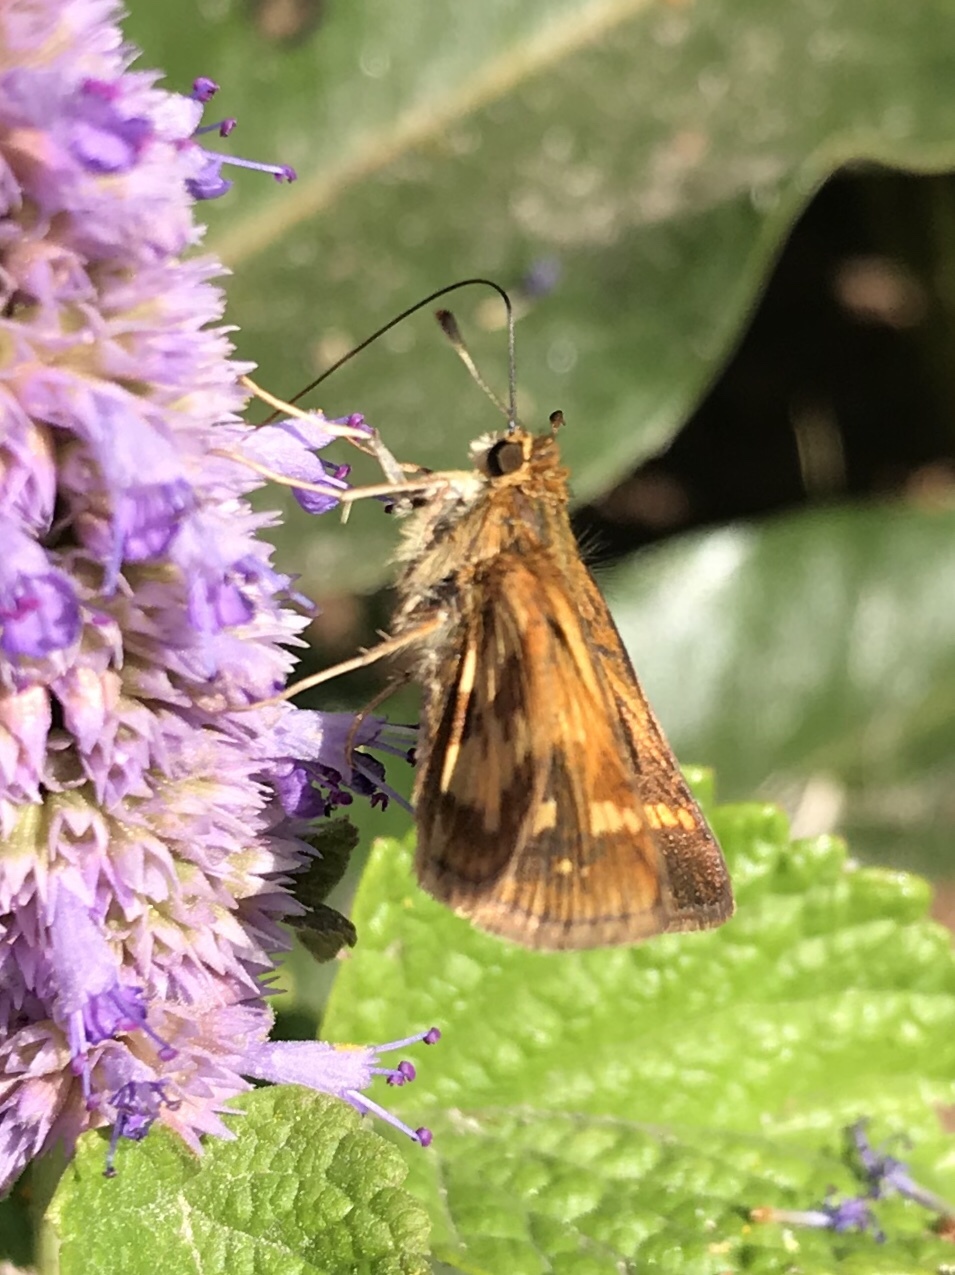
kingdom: Animalia
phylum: Arthropoda
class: Insecta
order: Lepidoptera
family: Hesperiidae
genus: Polites
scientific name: Polites coras
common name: Peck's skipper
